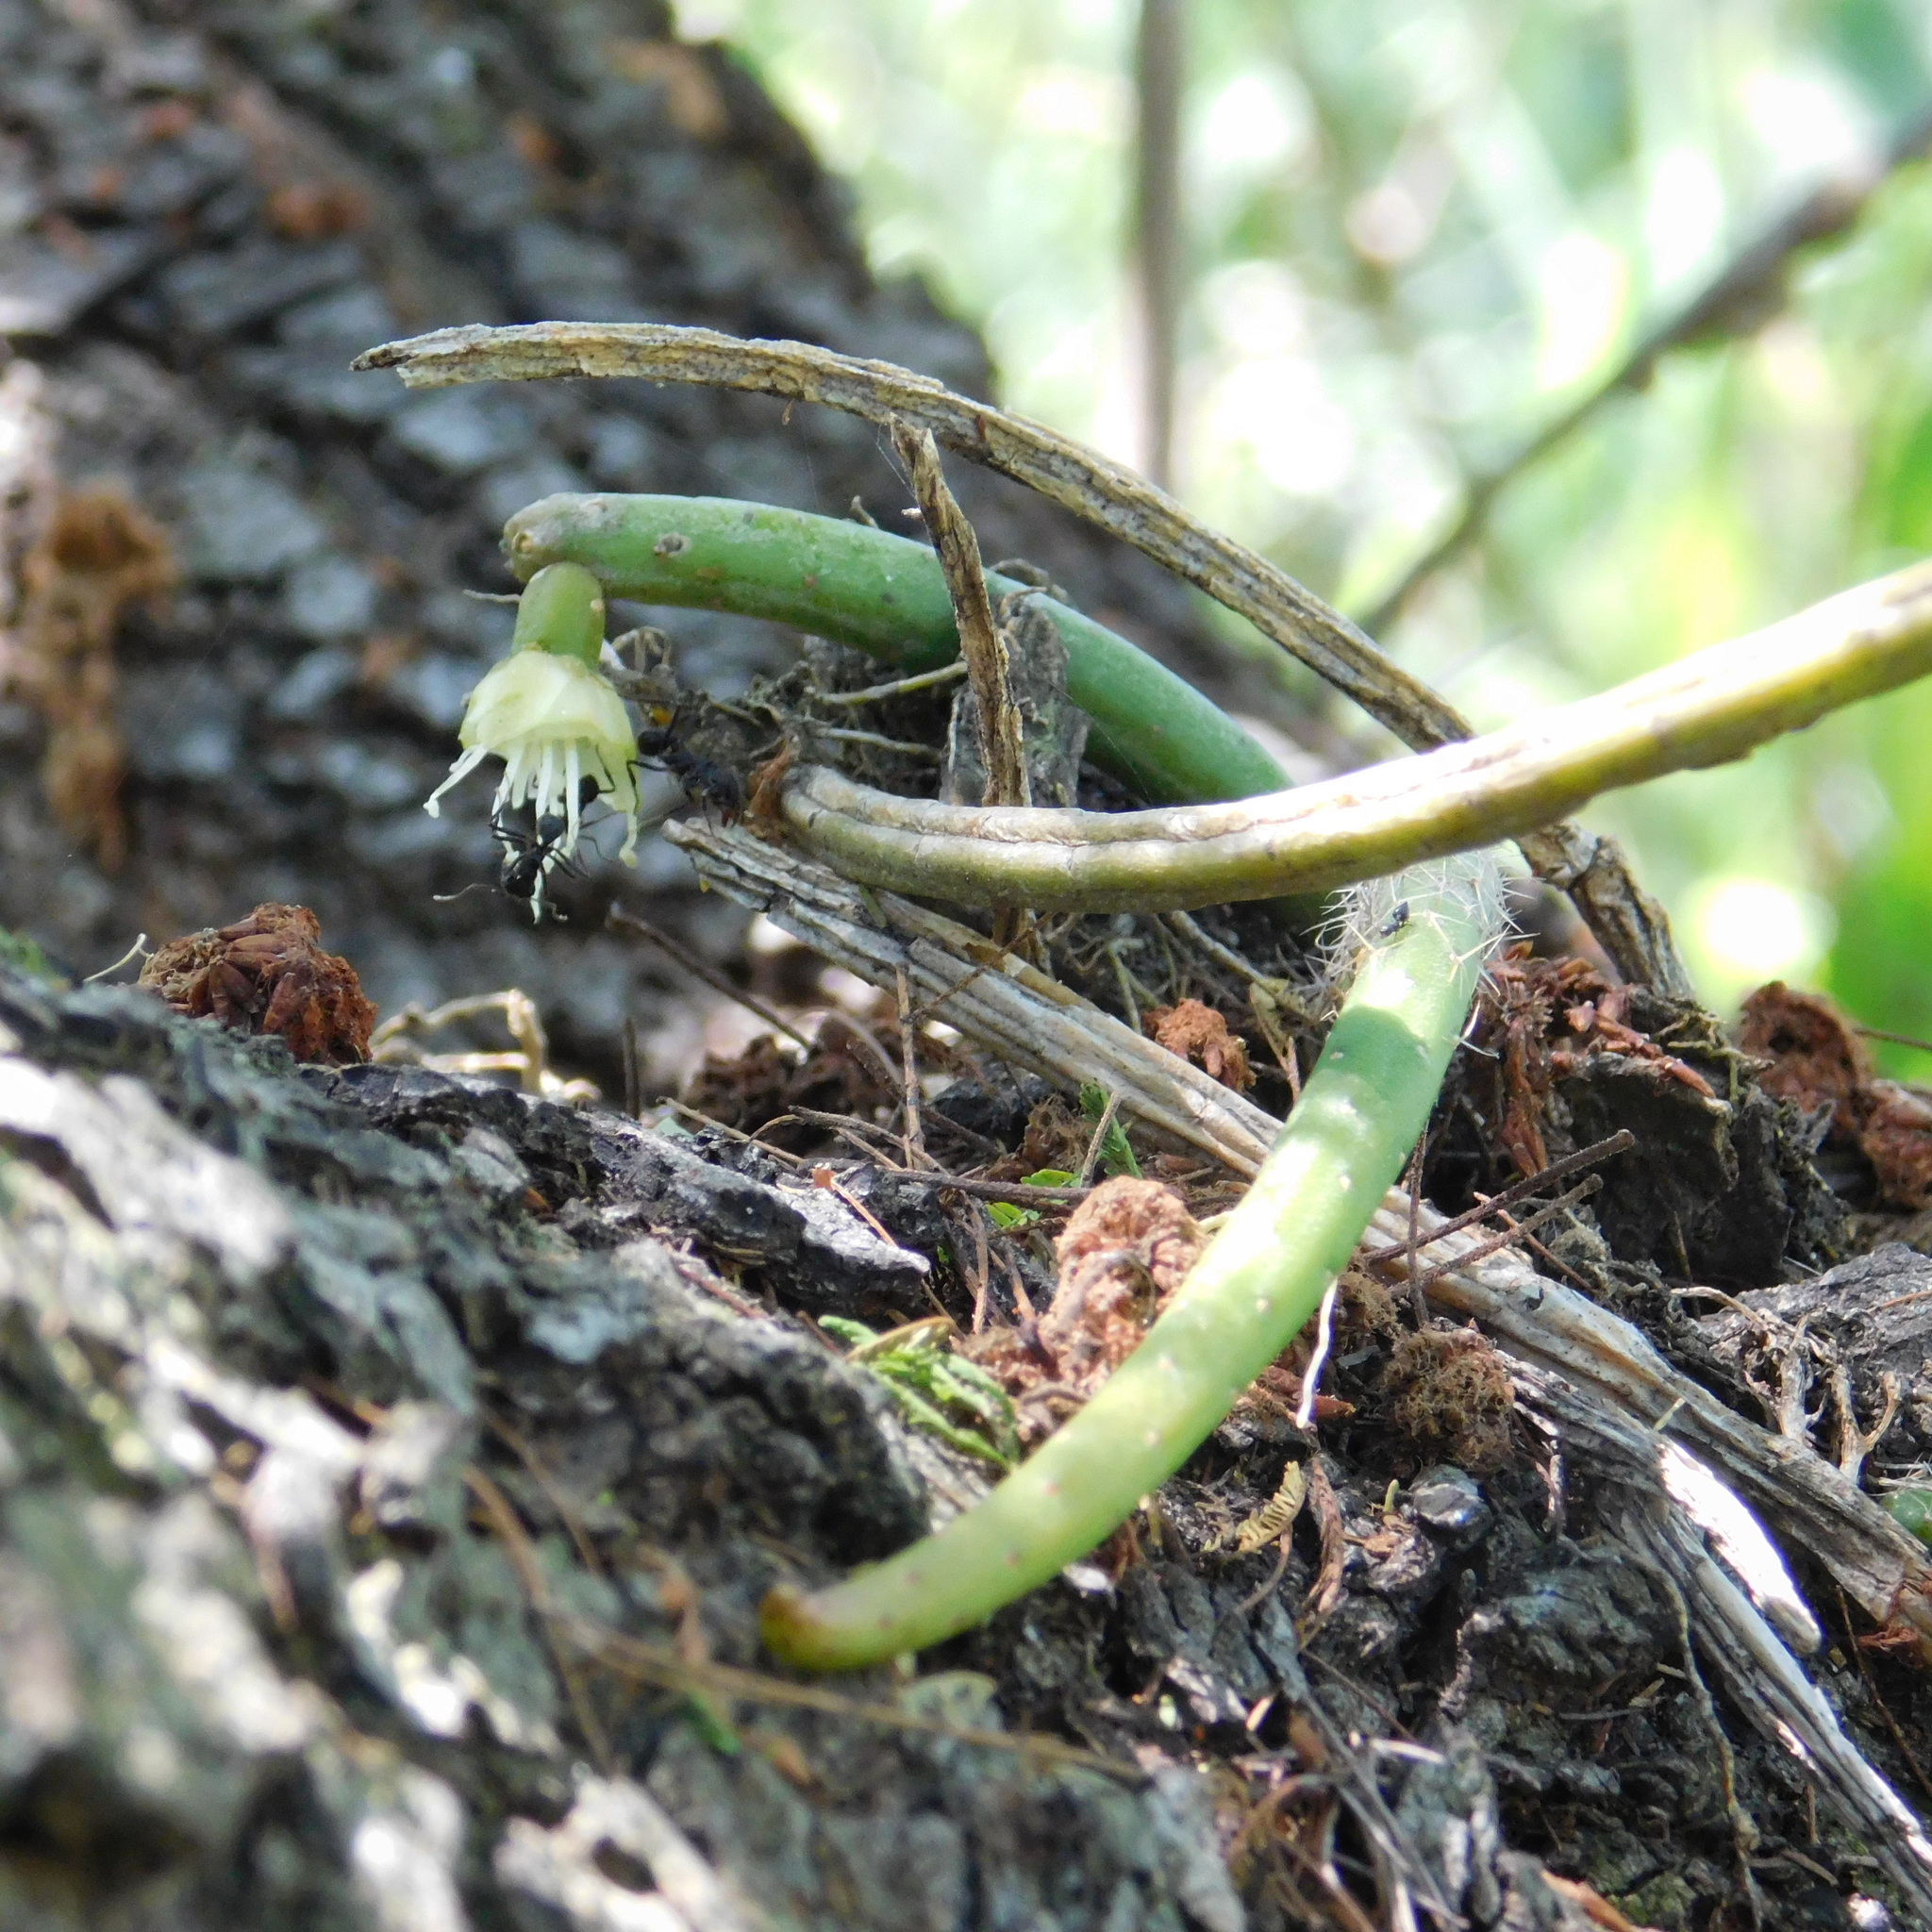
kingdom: Plantae
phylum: Tracheophyta
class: Magnoliopsida
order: Caryophyllales
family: Cactaceae
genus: Lepismium
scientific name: Lepismium lumbricoides
